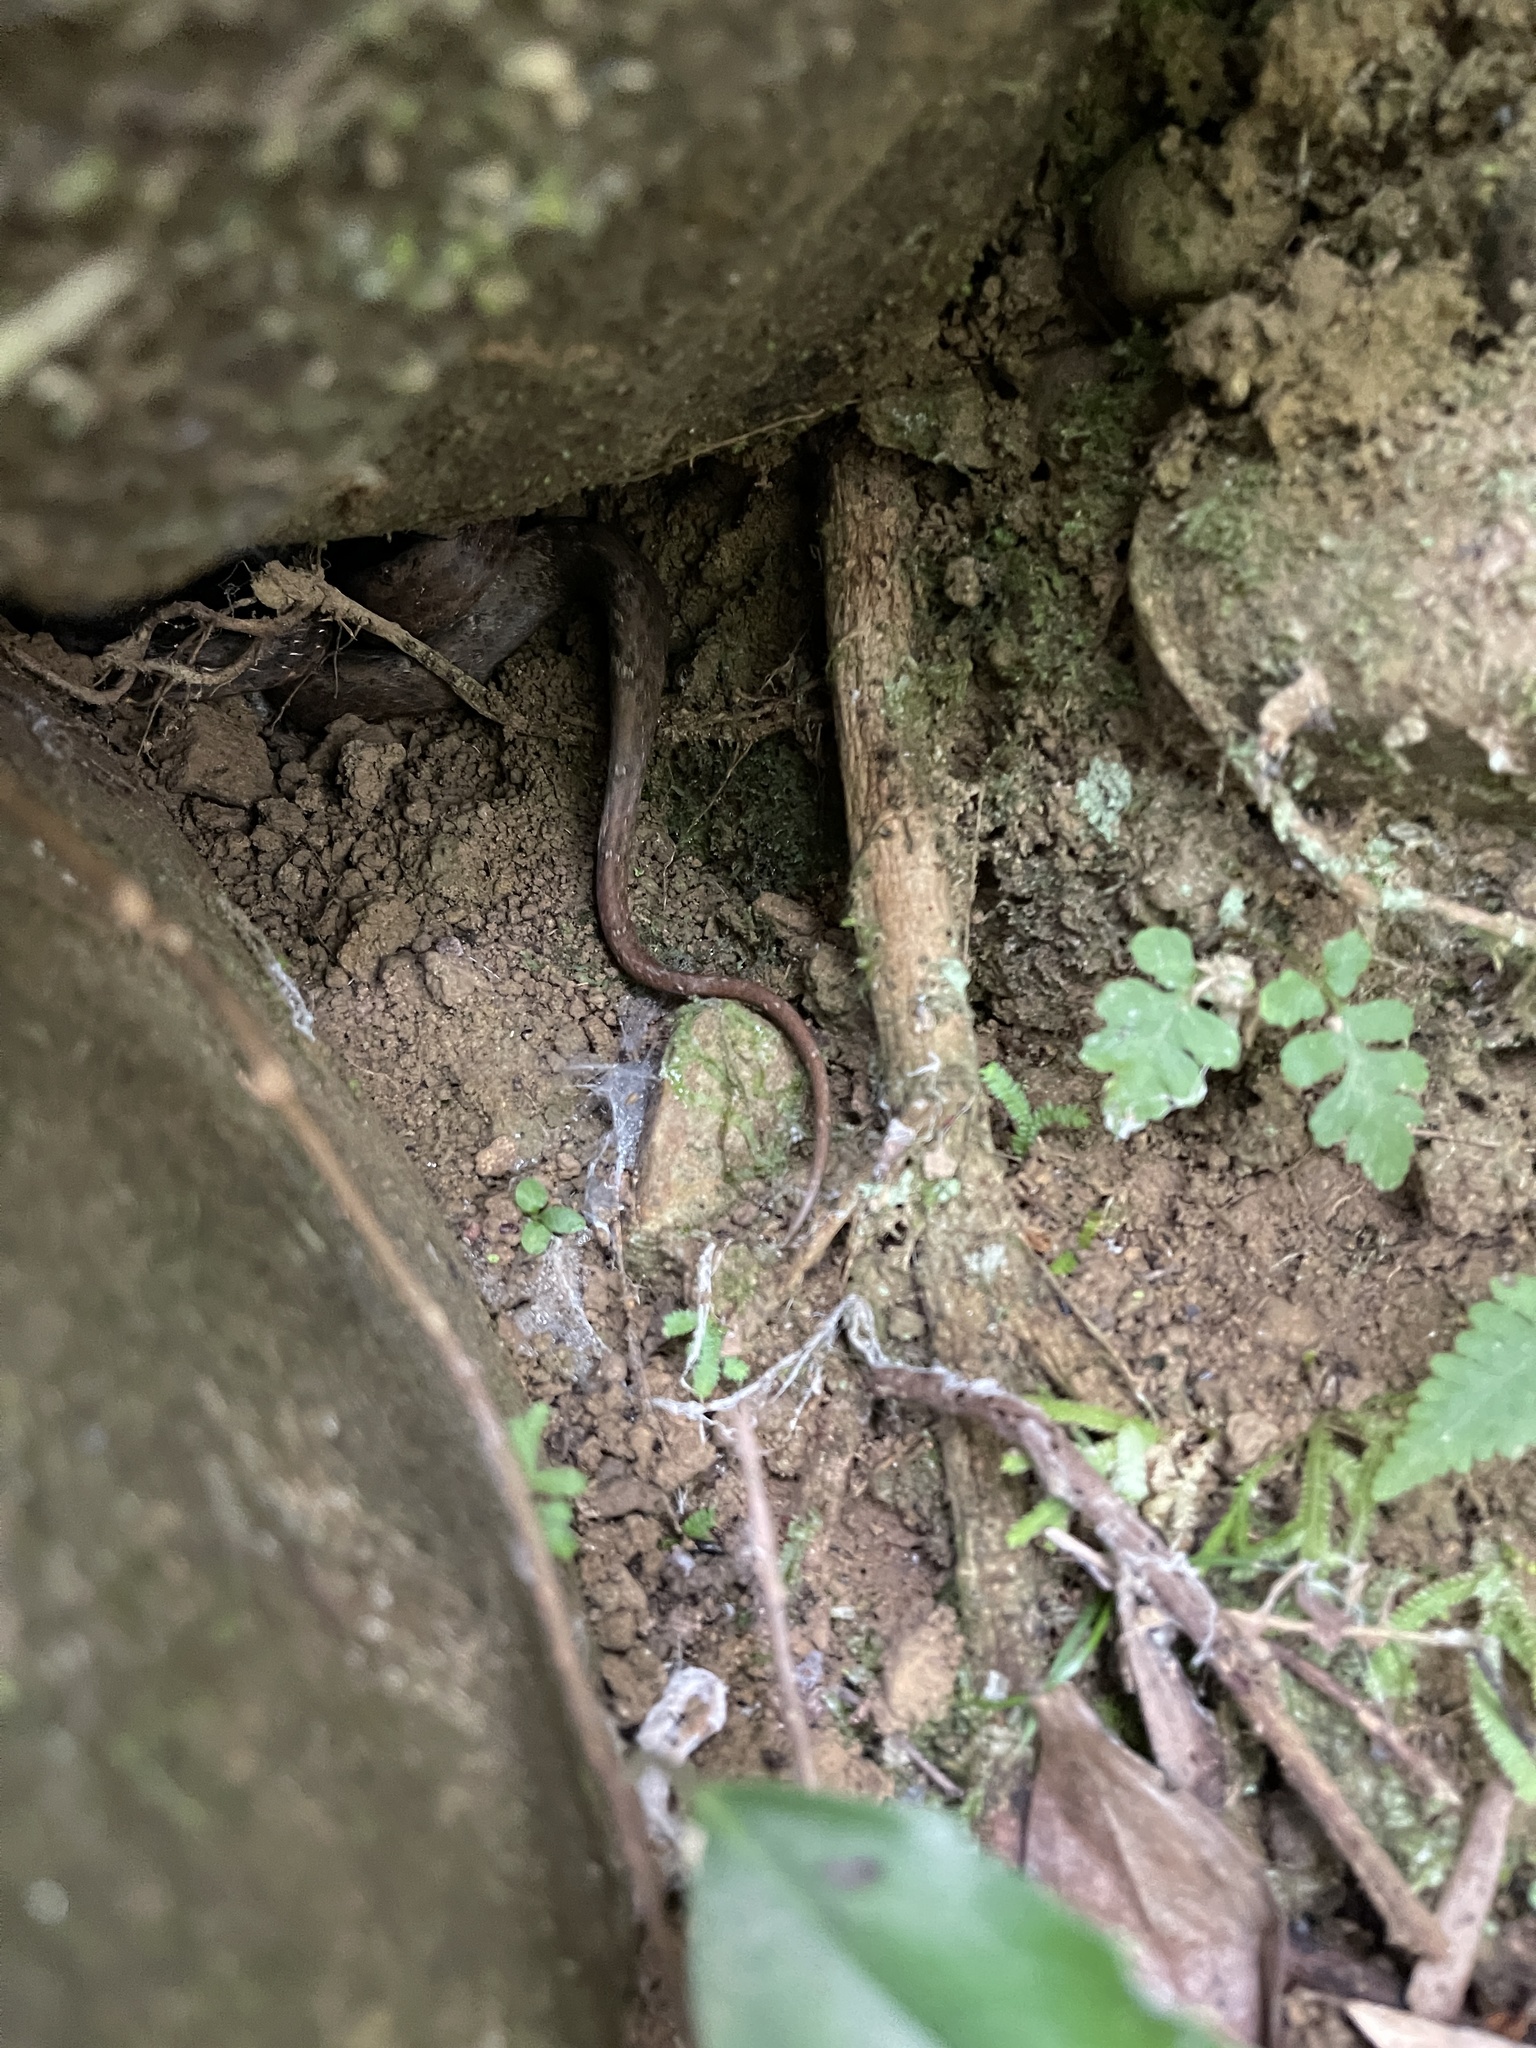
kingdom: Animalia
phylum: Chordata
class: Squamata
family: Pseudaspididae
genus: Psammodynastes
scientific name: Psammodynastes pulverulentus
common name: Common mock viper
